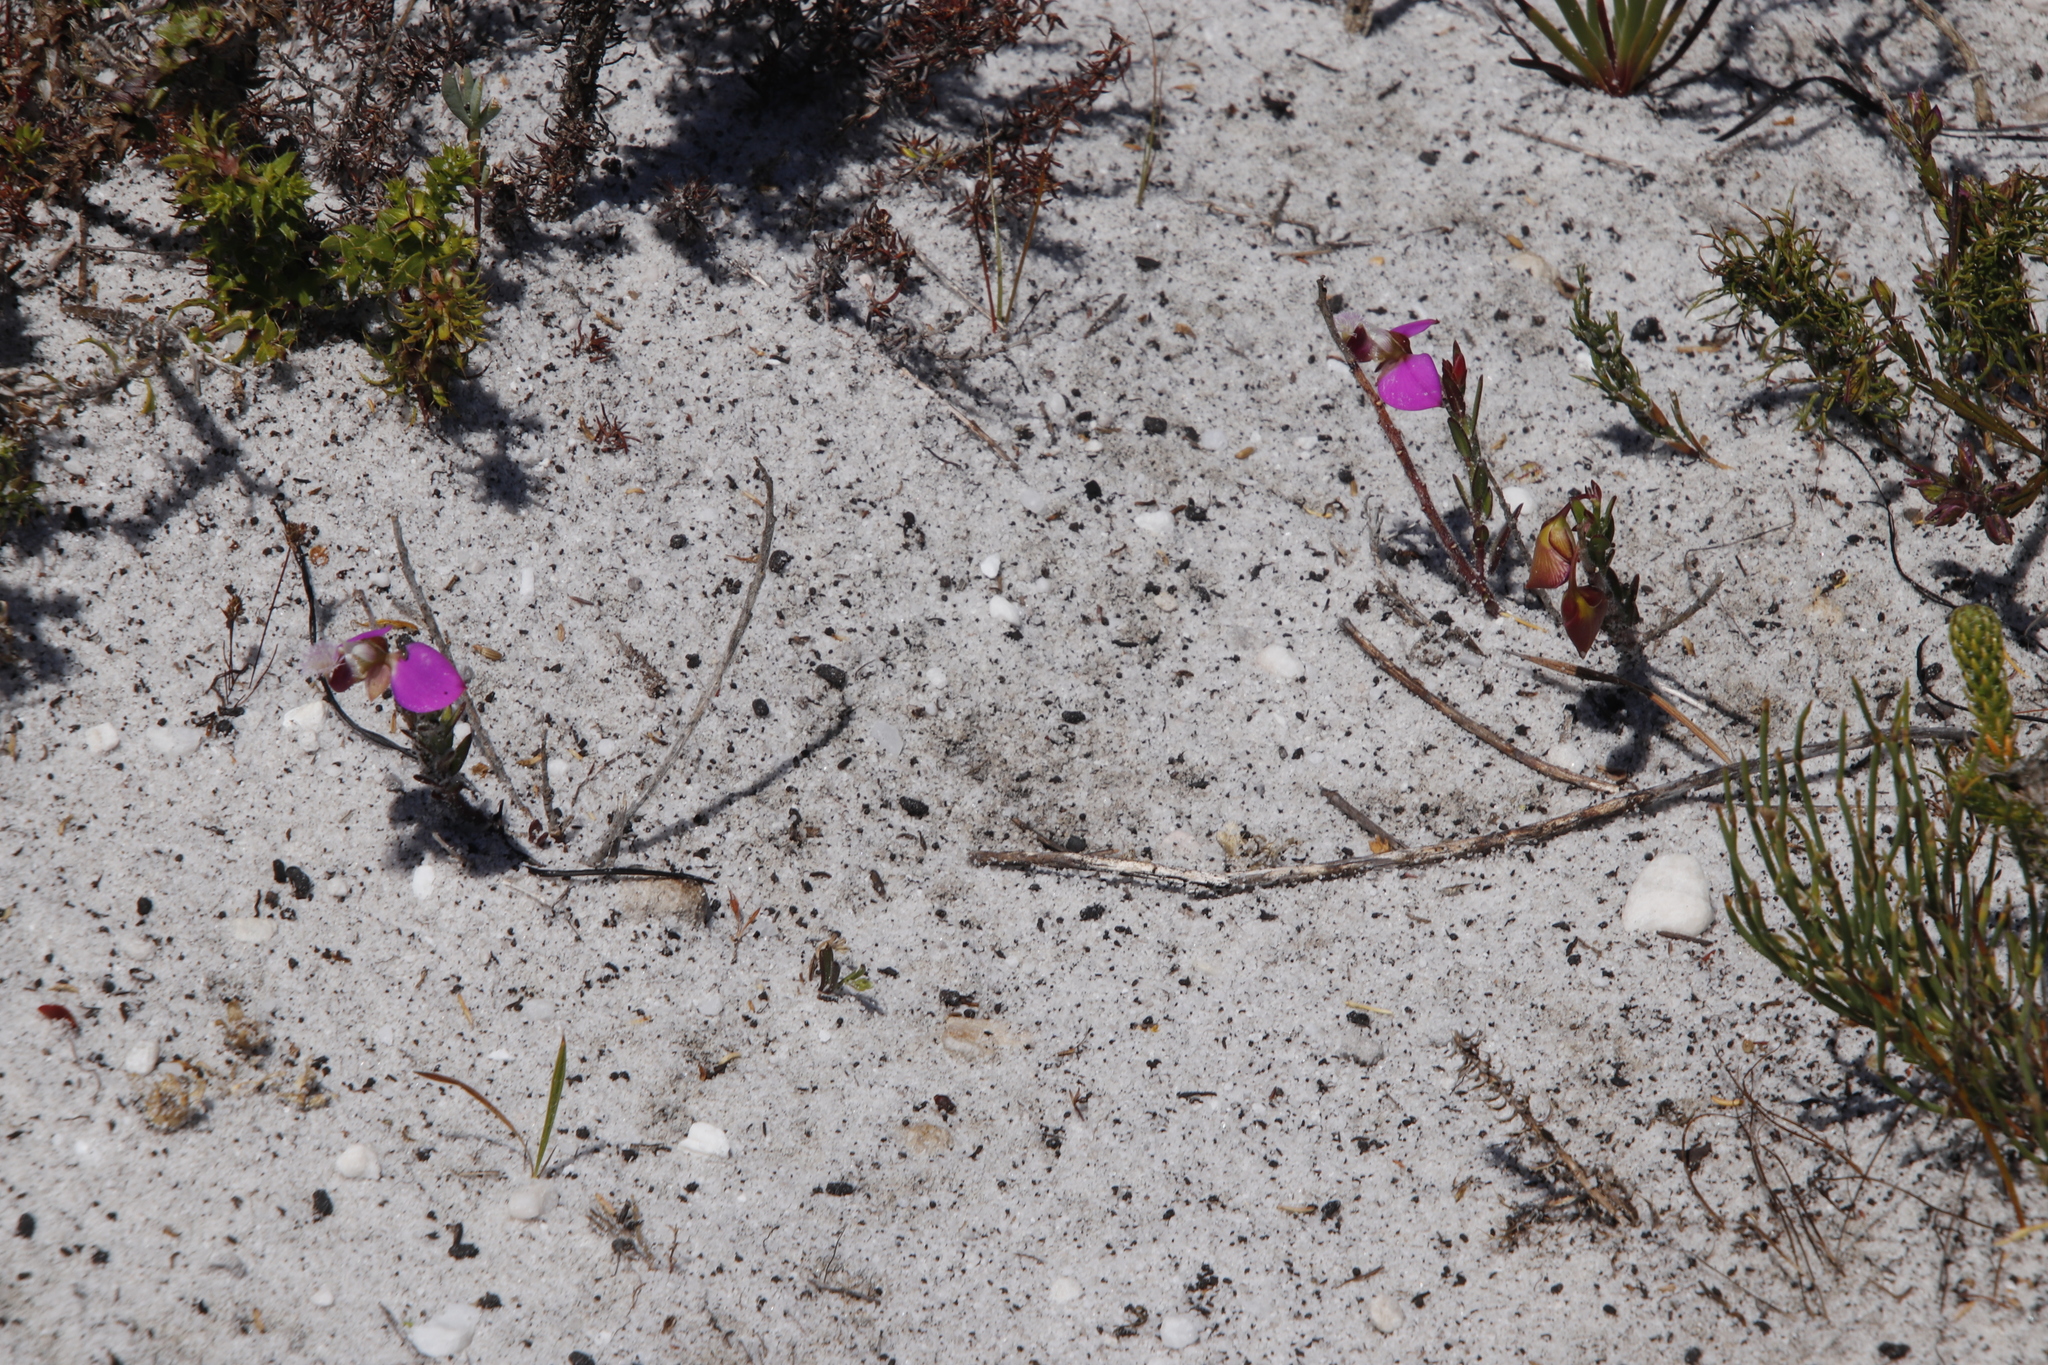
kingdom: Plantae
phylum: Tracheophyta
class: Magnoliopsida
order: Fabales
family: Polygalaceae
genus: Polygala
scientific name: Polygala bracteolata
